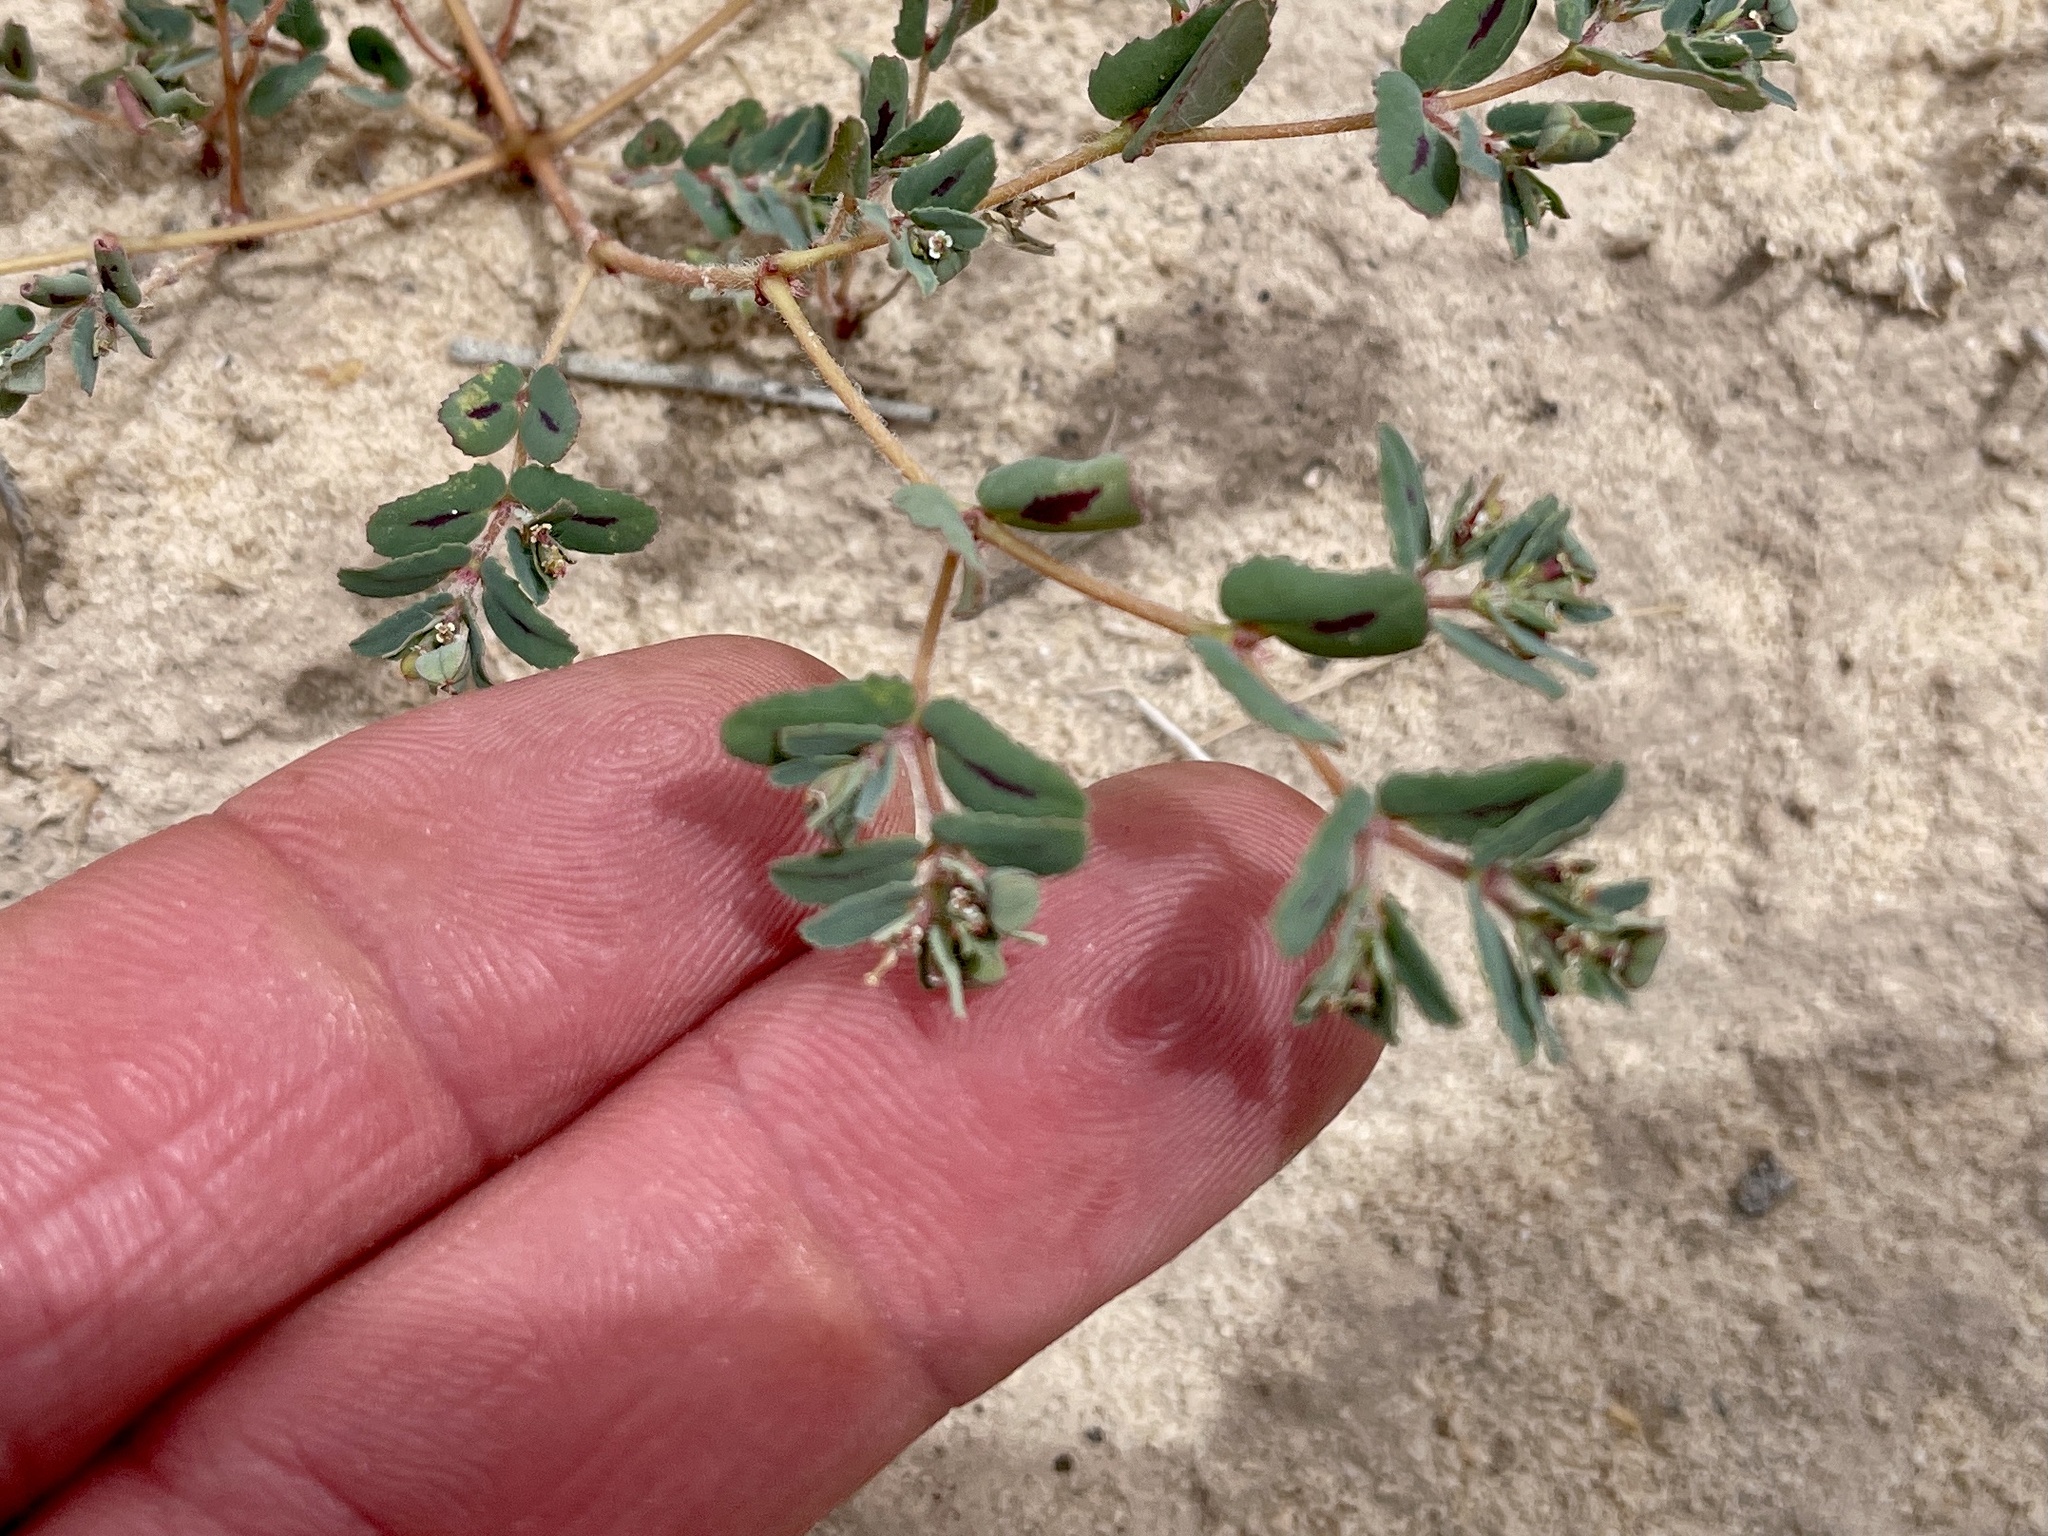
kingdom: Plantae
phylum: Tracheophyta
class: Magnoliopsida
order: Malpighiales
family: Euphorbiaceae
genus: Euphorbia
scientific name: Euphorbia serrula
